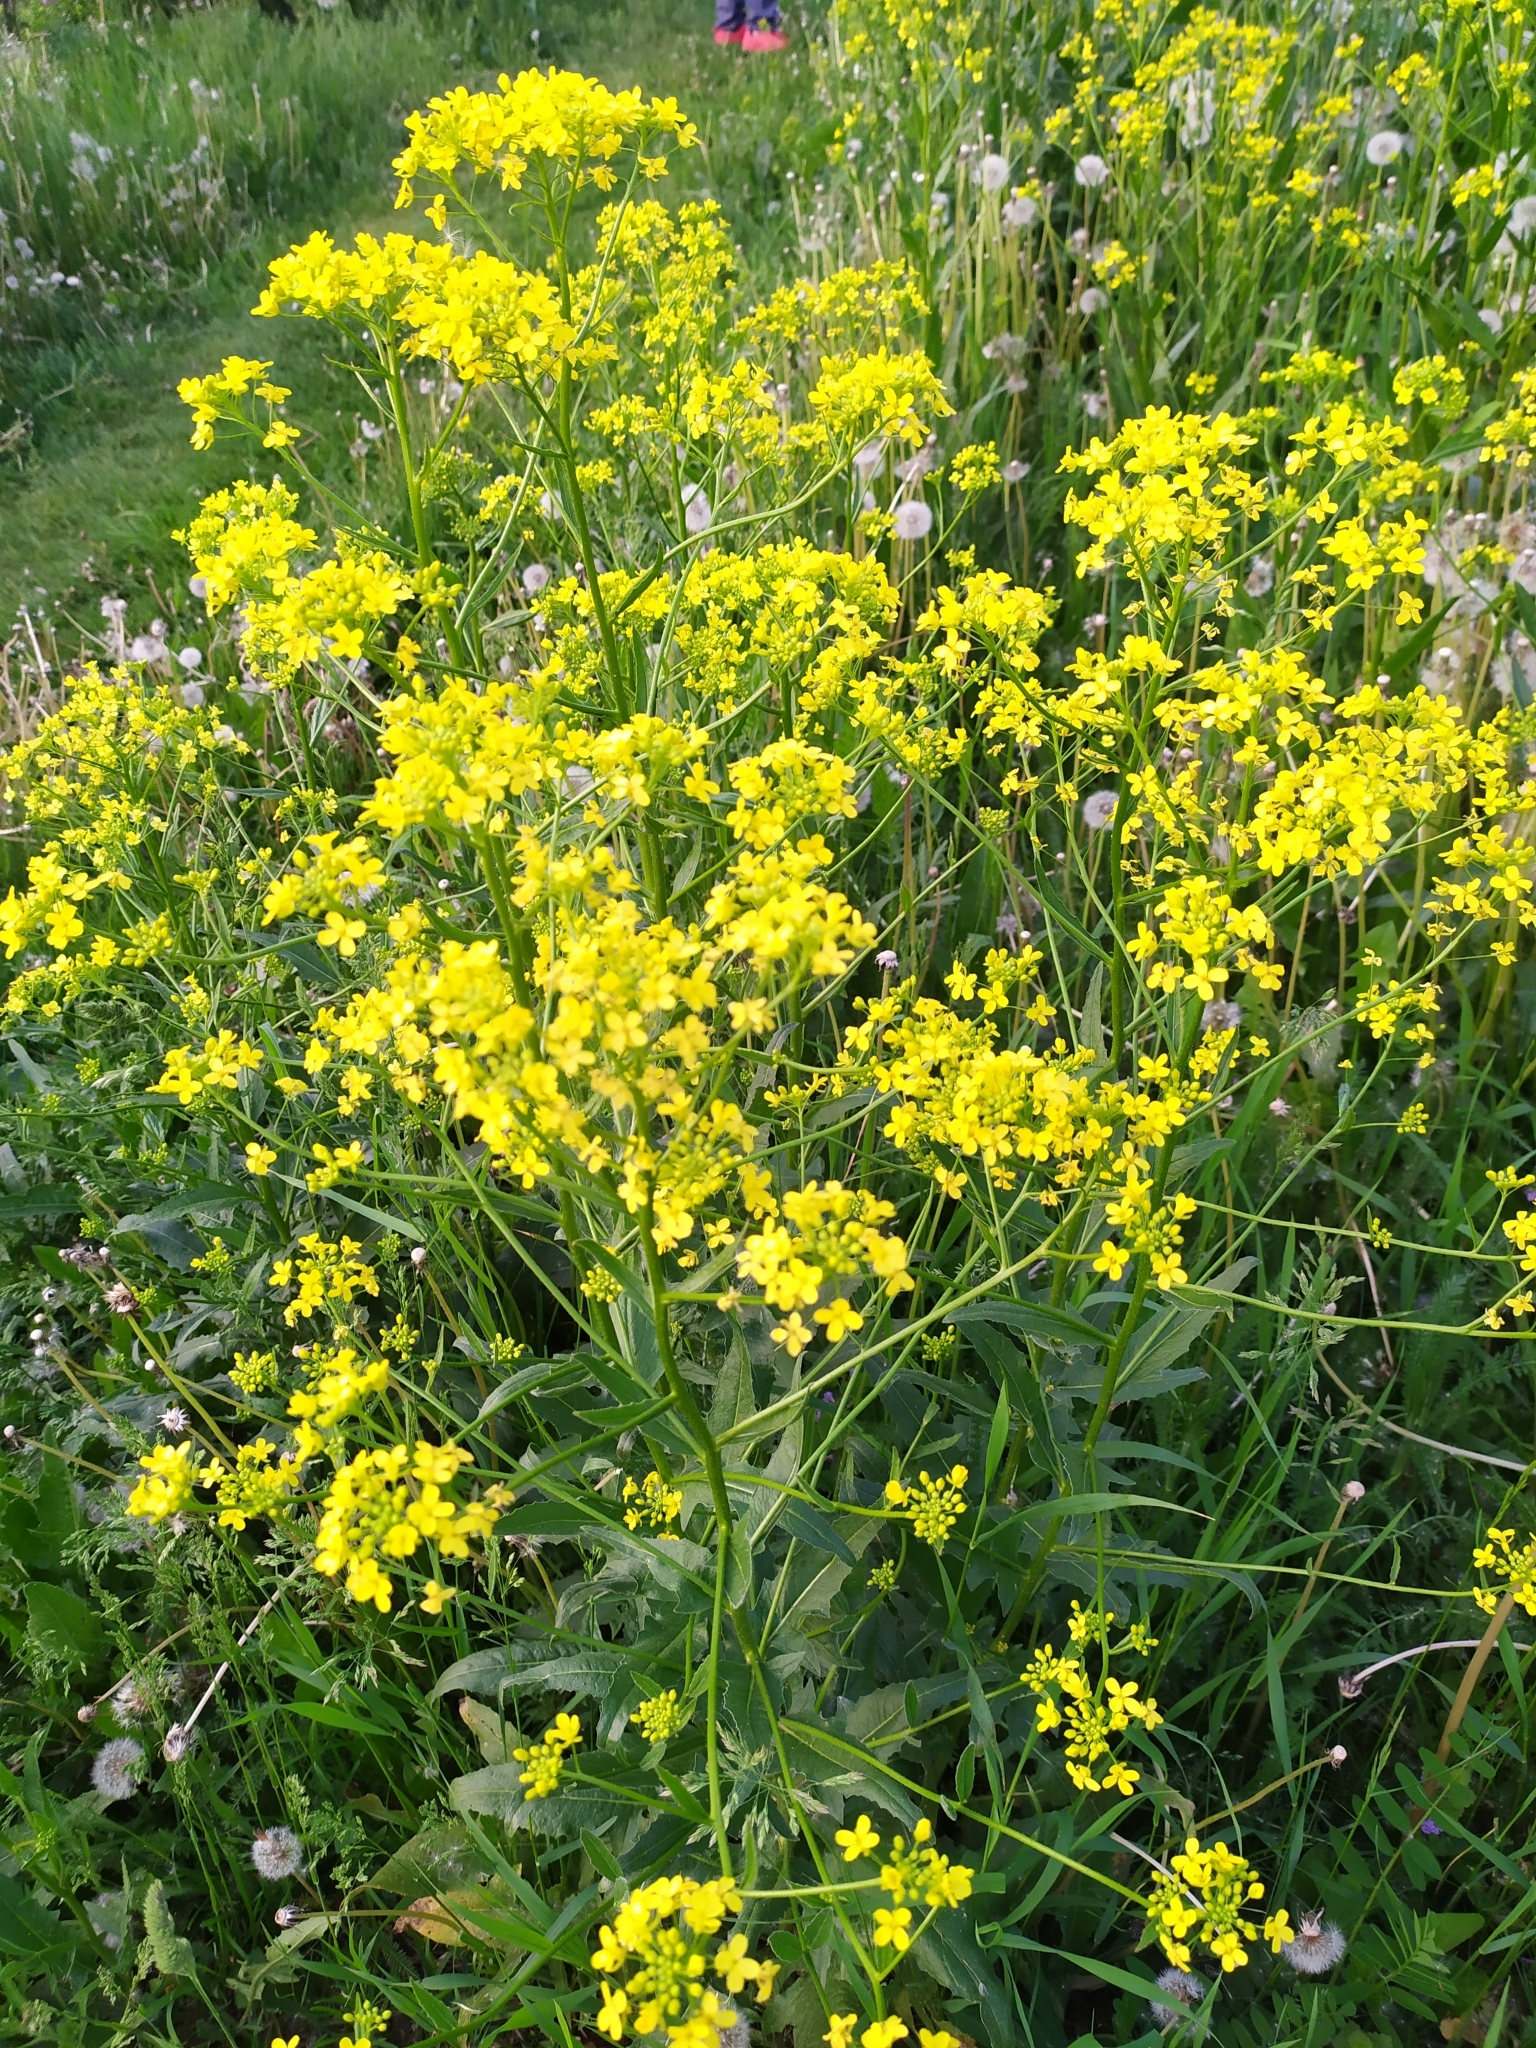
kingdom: Plantae
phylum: Tracheophyta
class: Magnoliopsida
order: Brassicales
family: Brassicaceae
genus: Bunias
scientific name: Bunias orientalis
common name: Warty-cabbage
